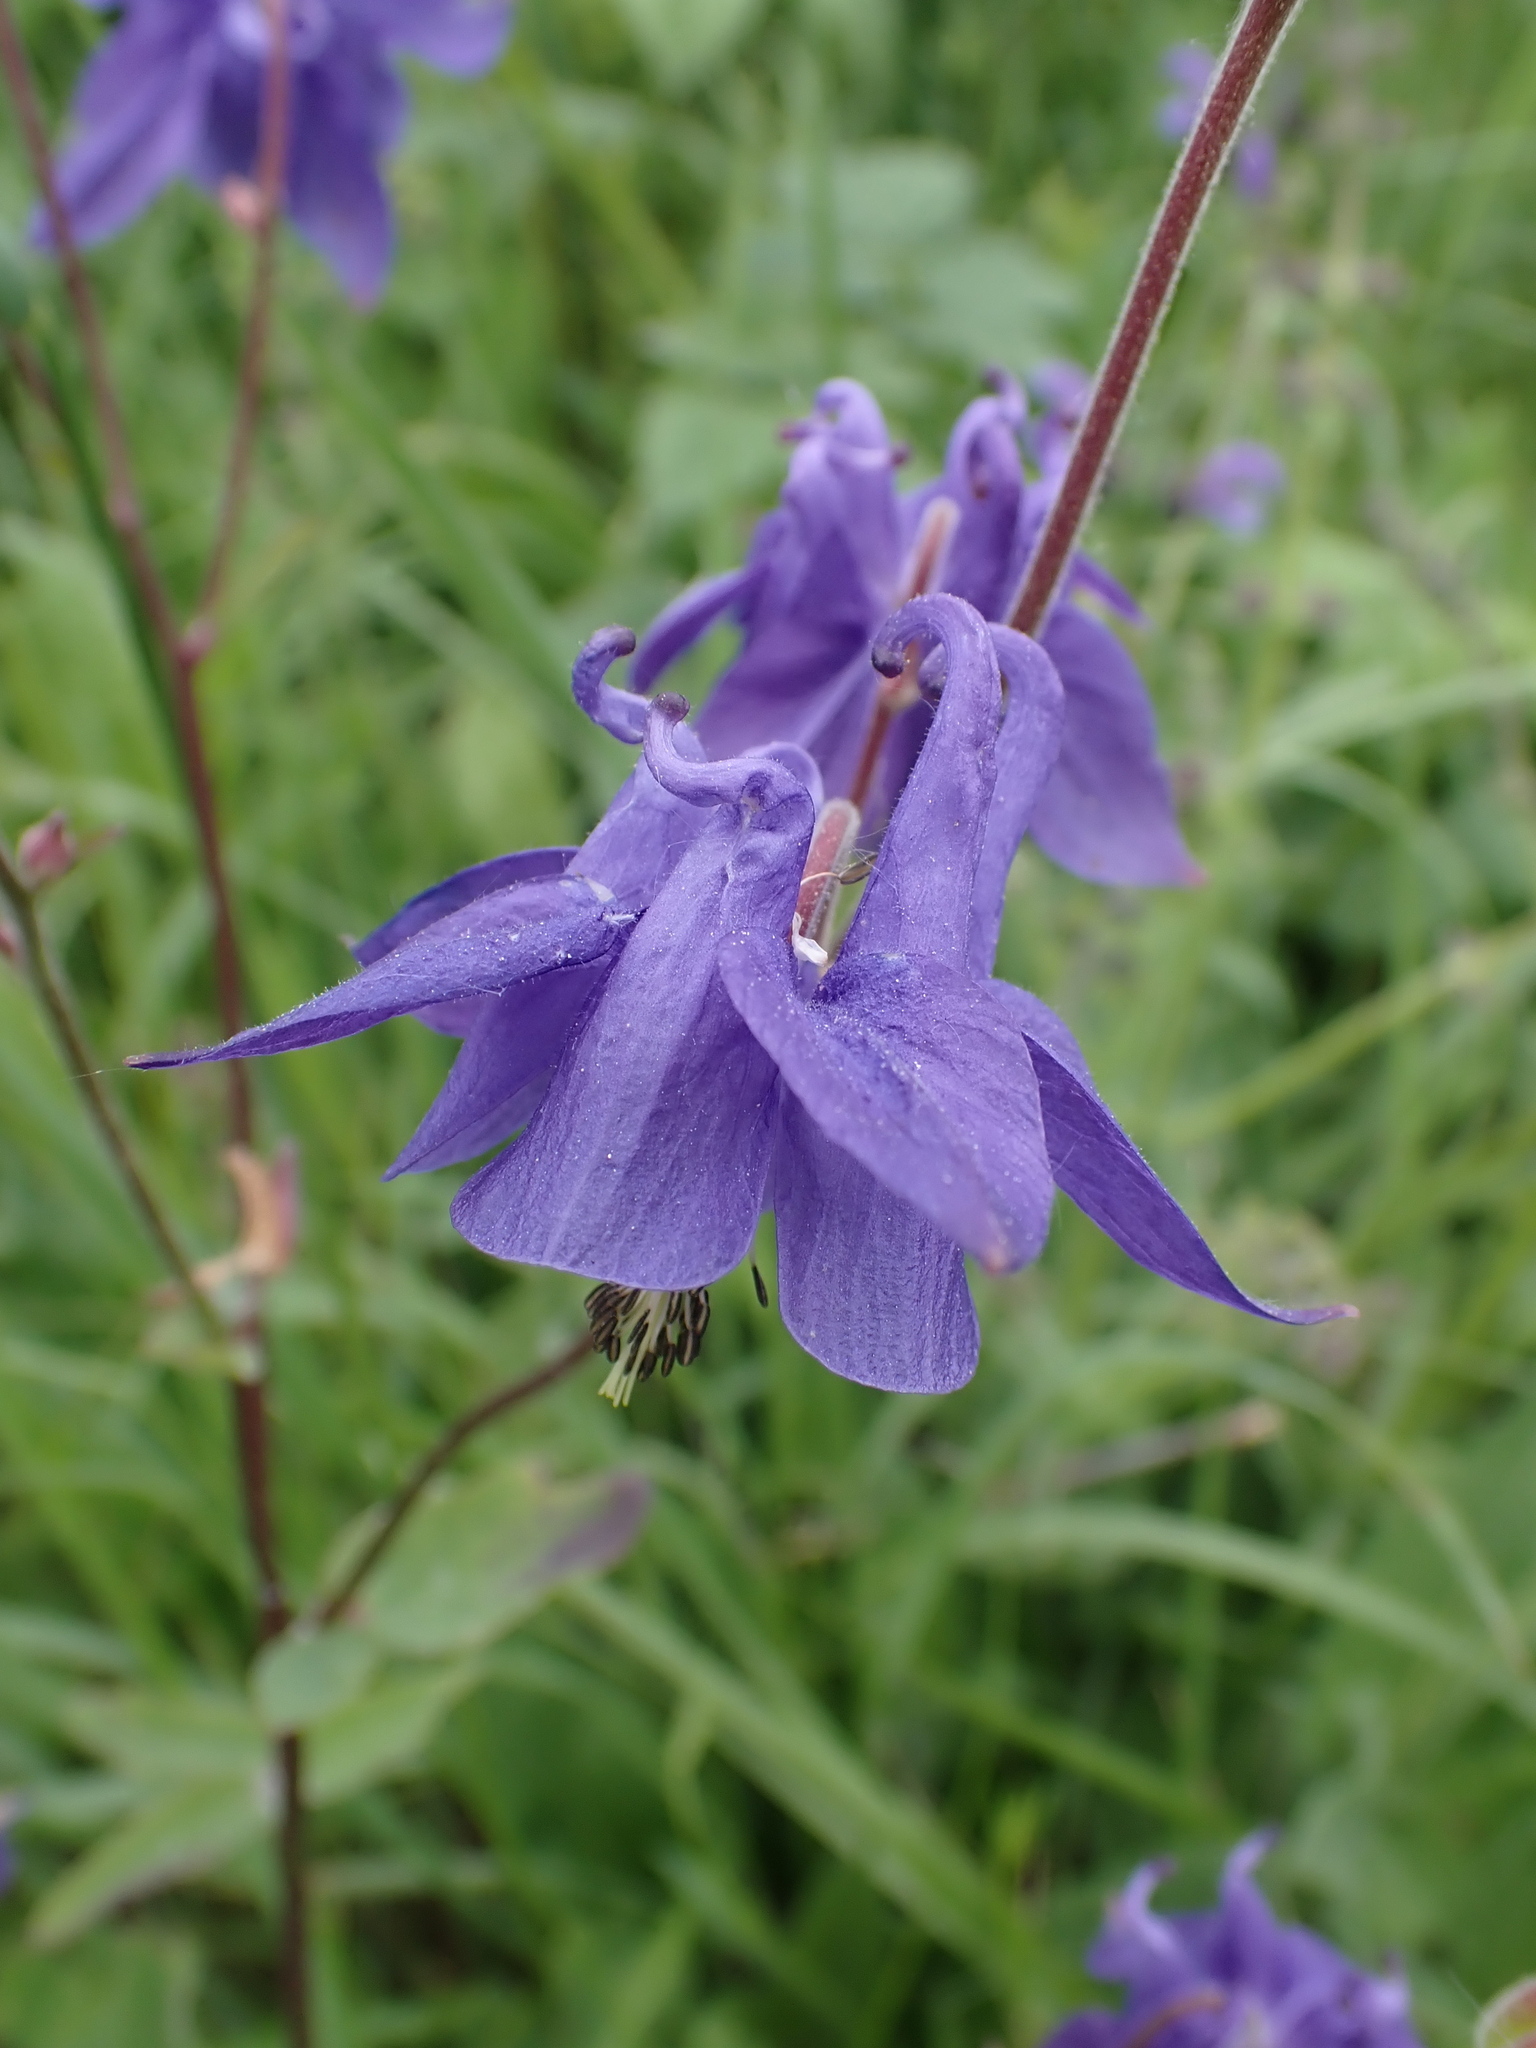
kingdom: Plantae
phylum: Tracheophyta
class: Magnoliopsida
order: Ranunculales
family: Ranunculaceae
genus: Aquilegia
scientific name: Aquilegia vulgaris
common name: Columbine
